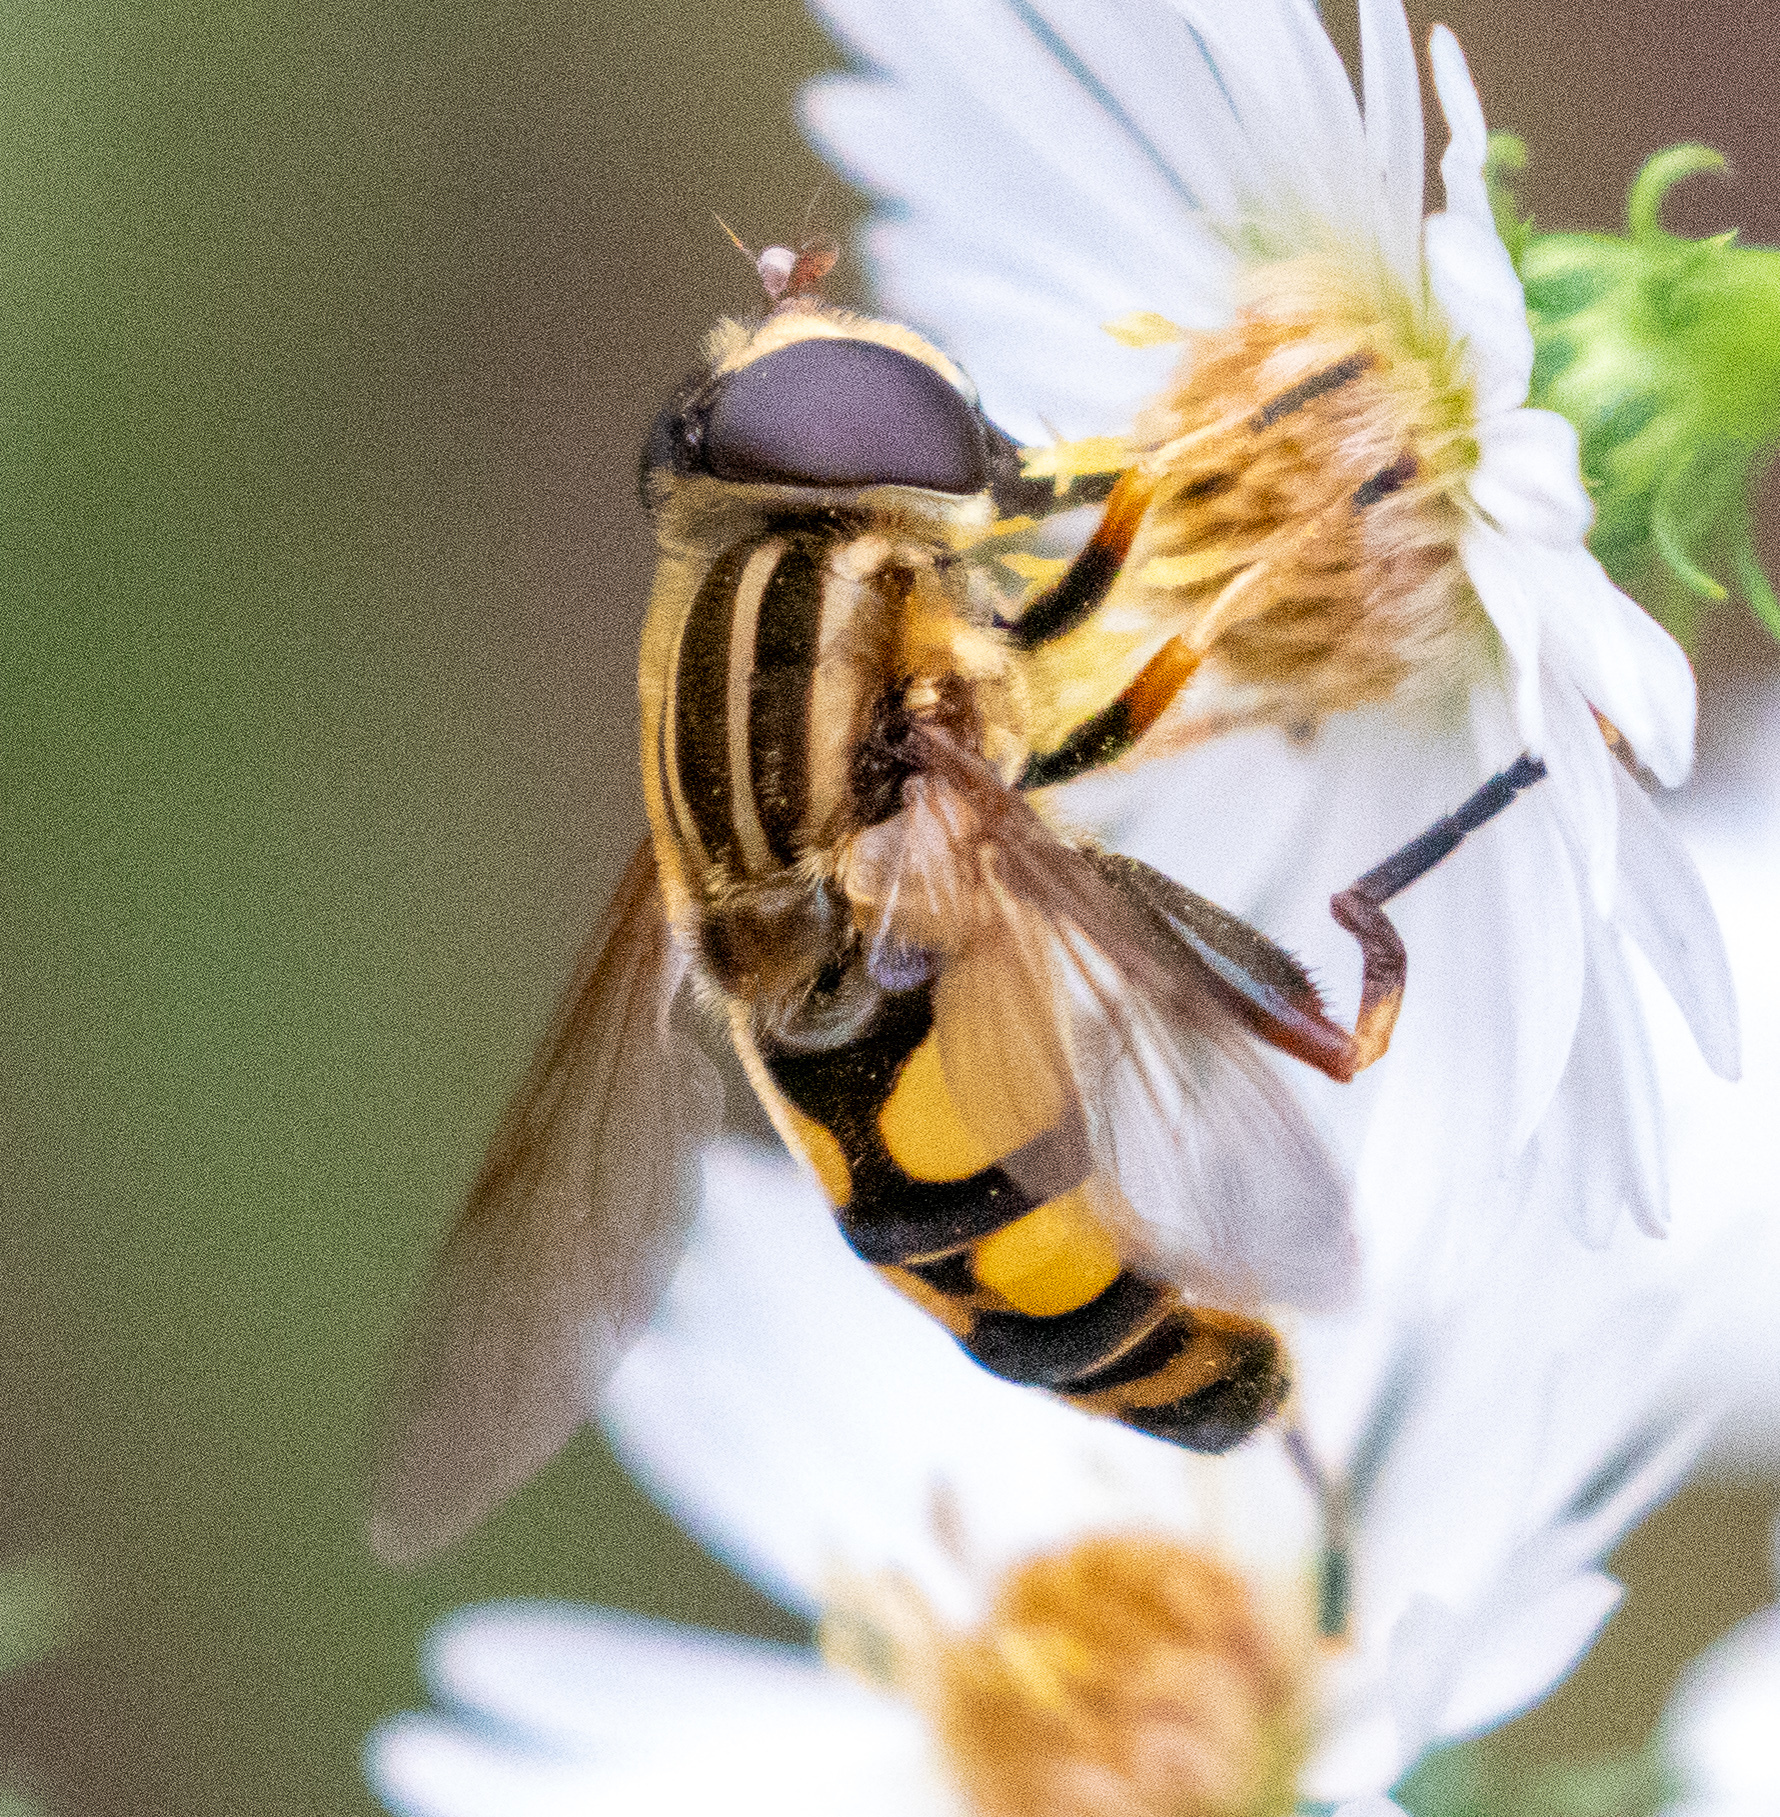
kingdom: Animalia
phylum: Arthropoda
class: Insecta
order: Diptera
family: Syrphidae
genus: Helophilus
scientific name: Helophilus fasciatus
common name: Narrow-headed marsh fly
